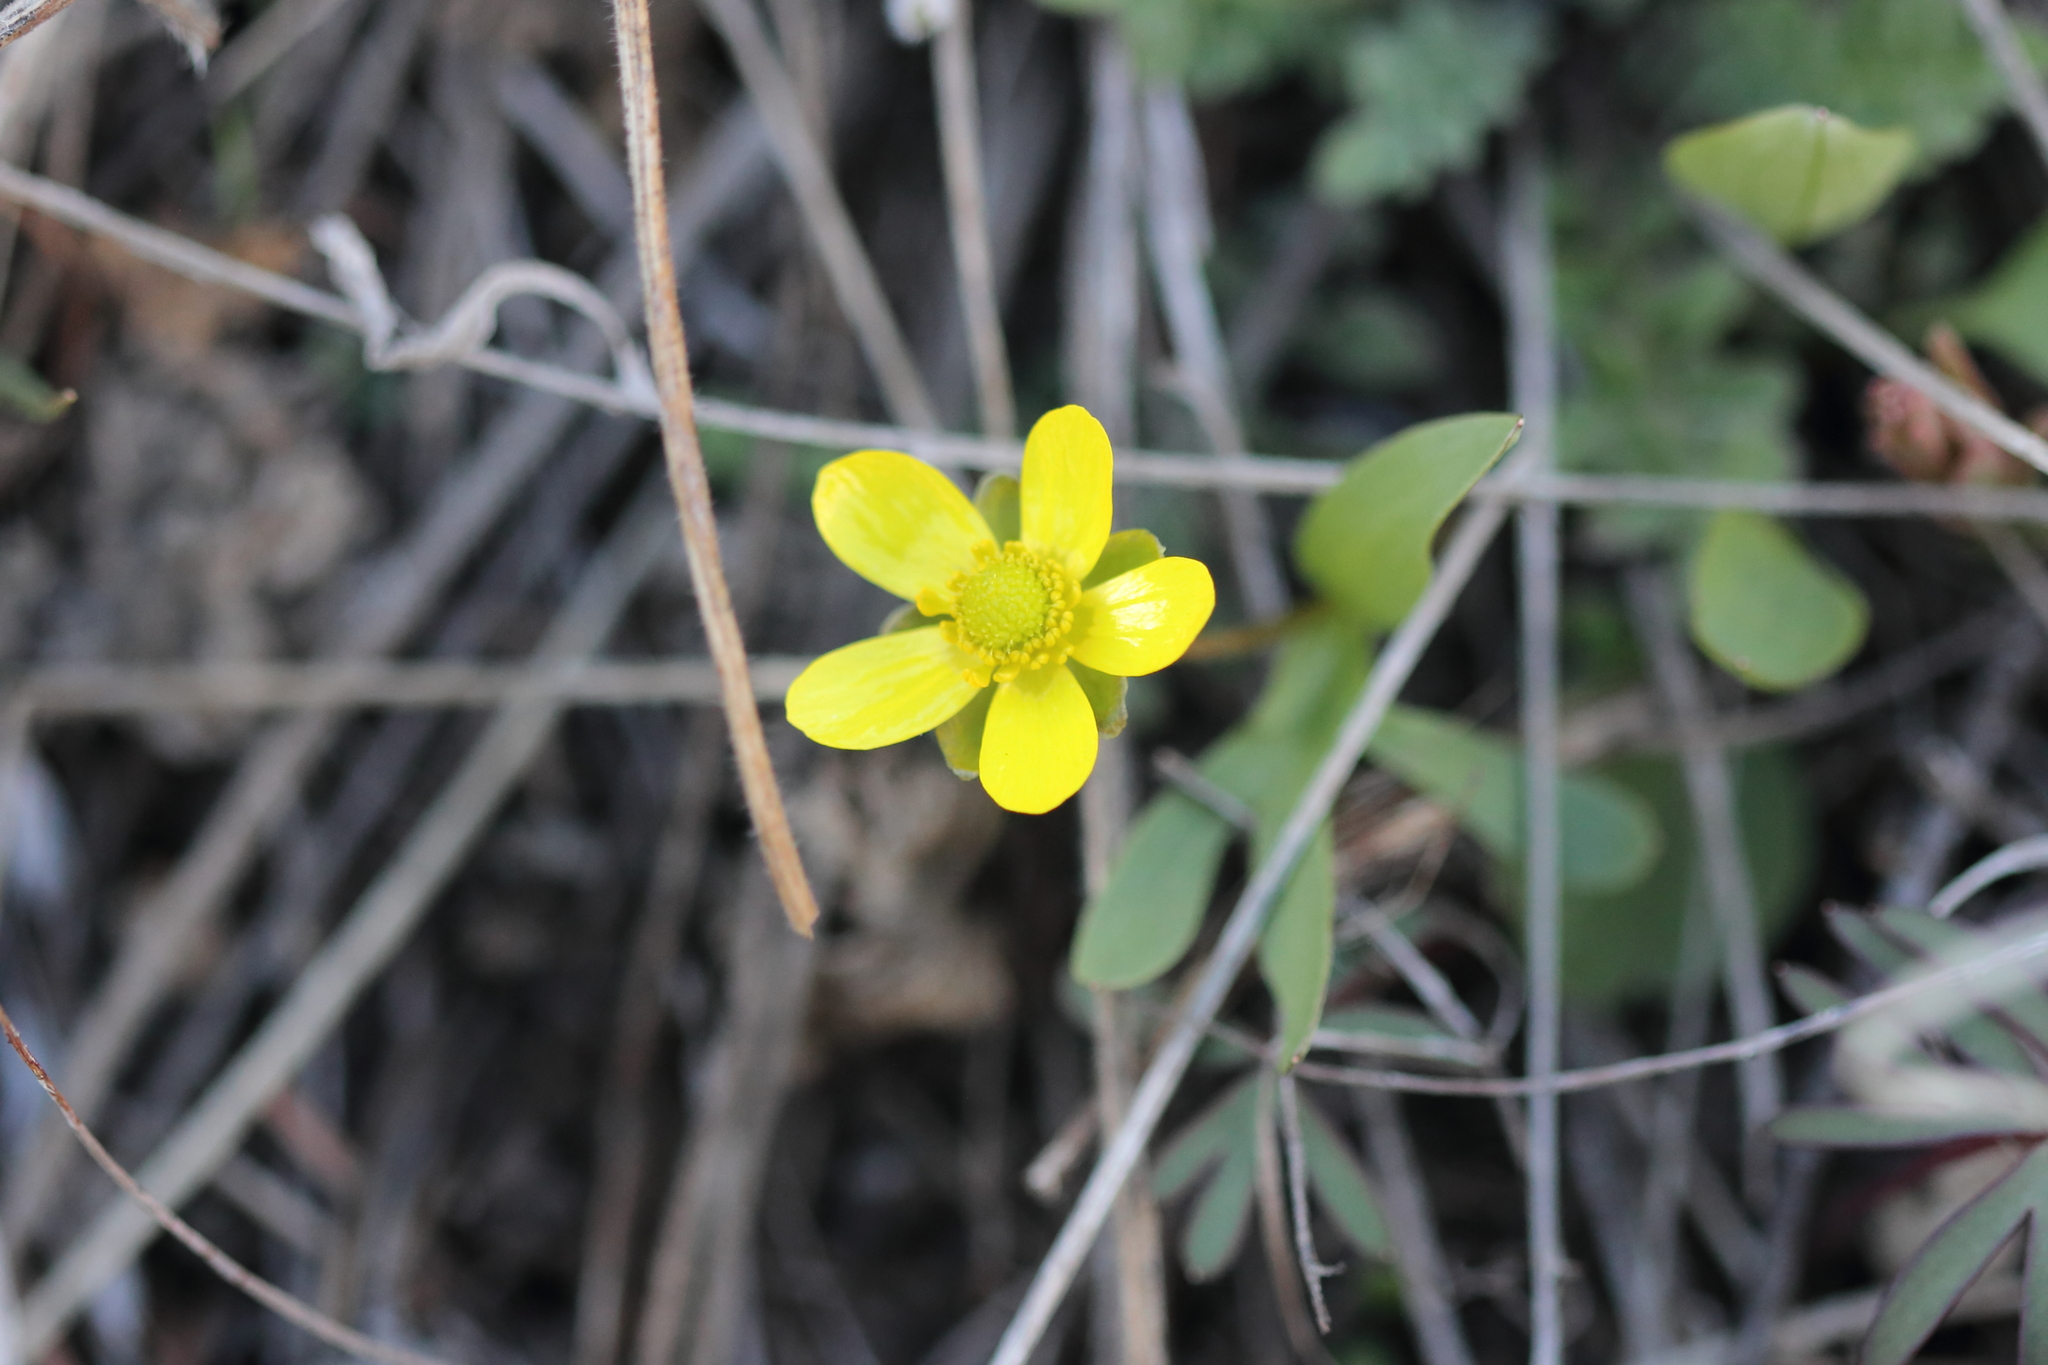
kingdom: Plantae
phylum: Tracheophyta
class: Magnoliopsida
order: Ranunculales
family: Ranunculaceae
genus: Ranunculus
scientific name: Ranunculus glaberrimus
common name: Sagebrush buttercup
